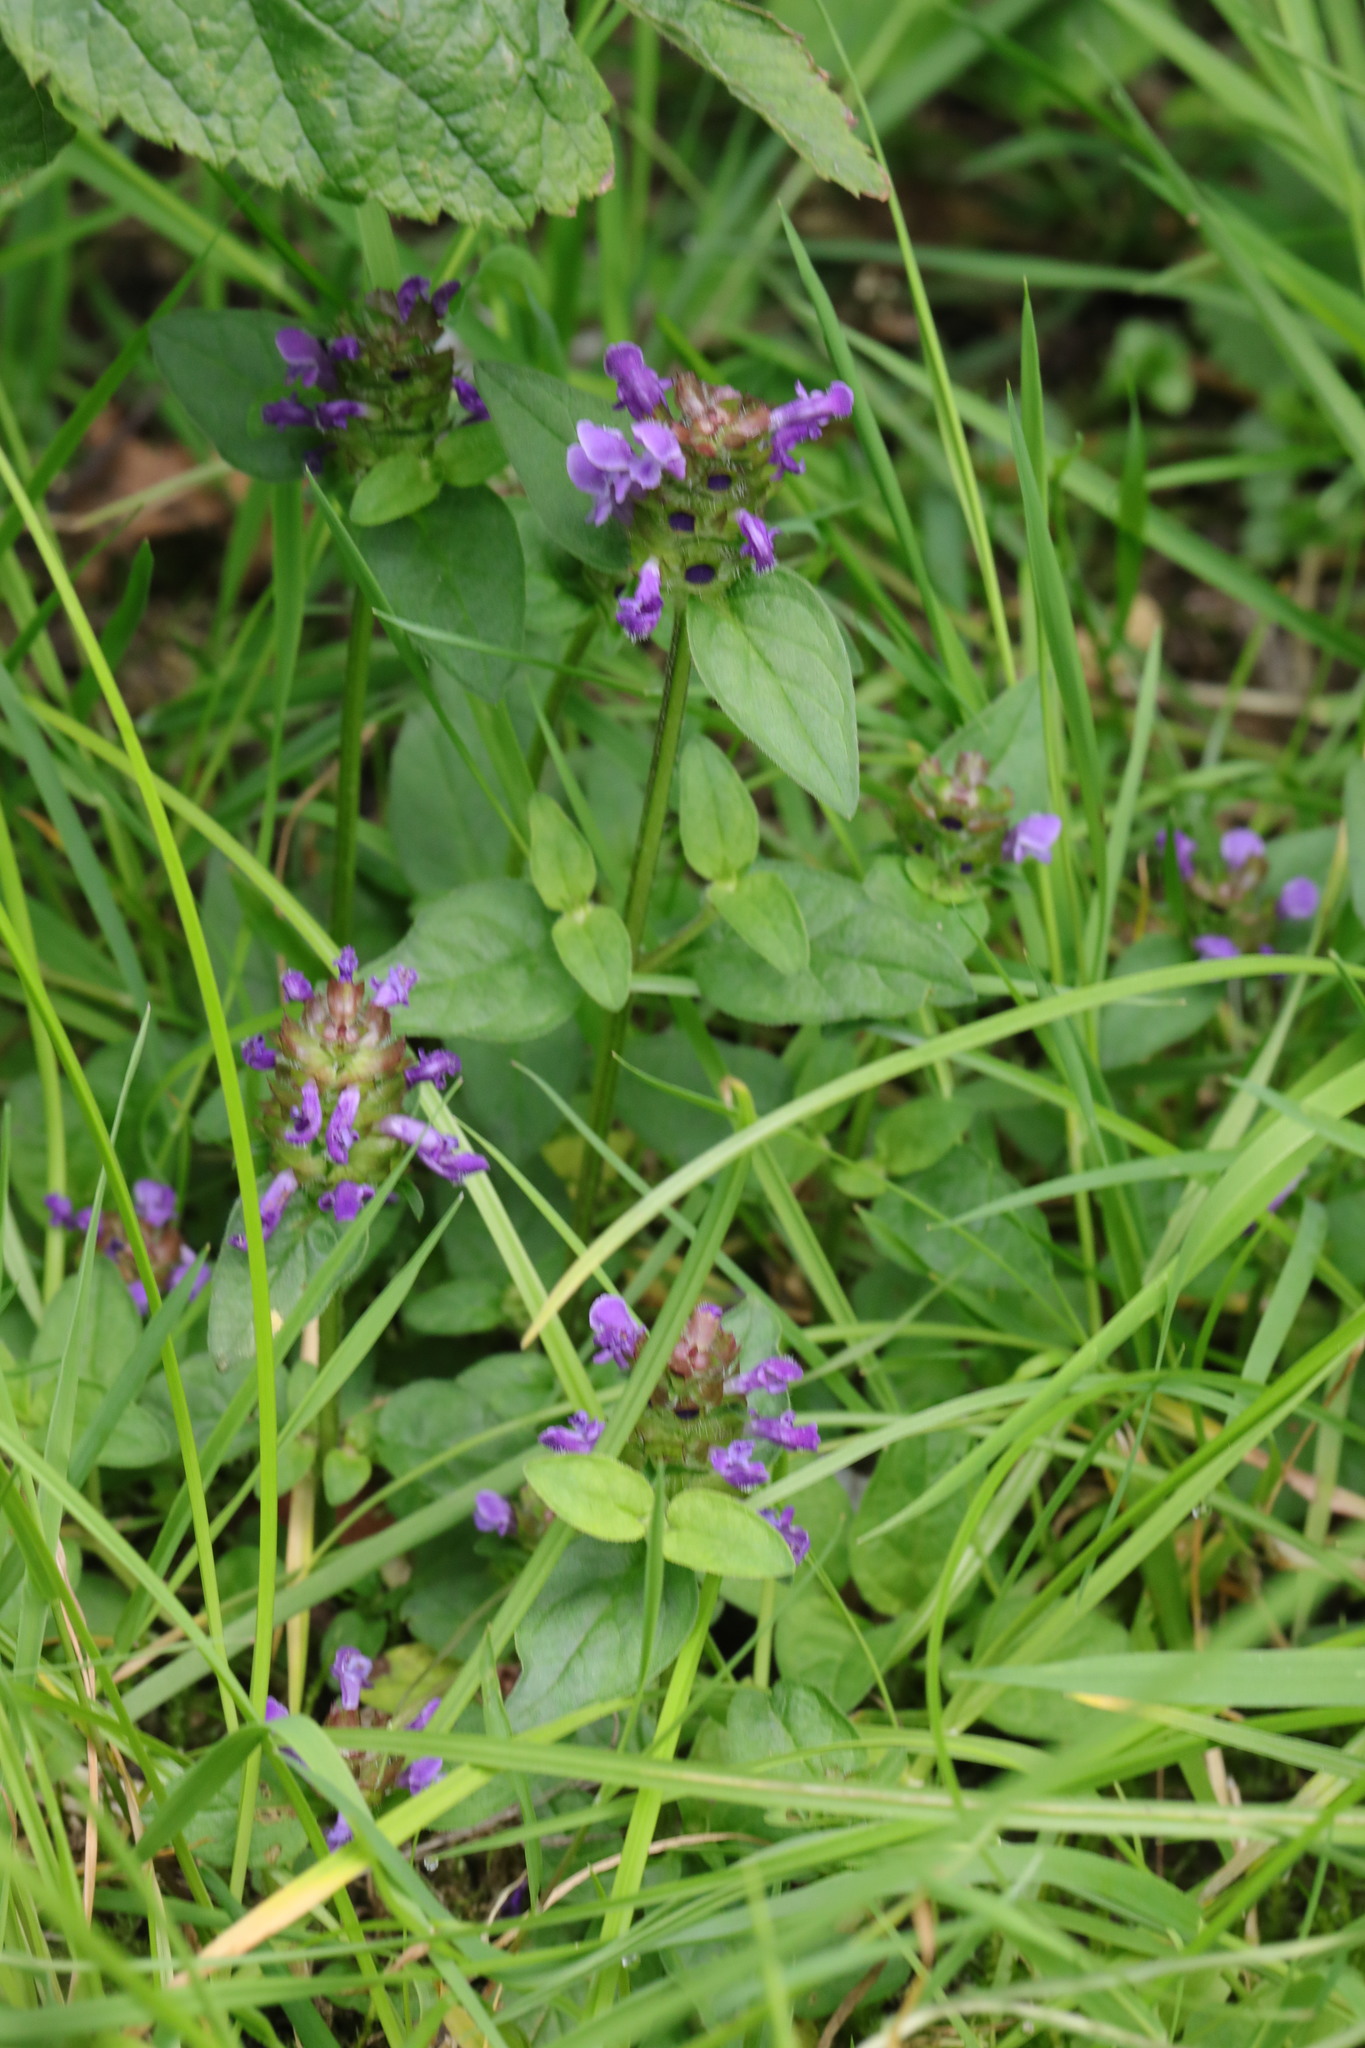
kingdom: Plantae
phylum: Tracheophyta
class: Magnoliopsida
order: Lamiales
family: Lamiaceae
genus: Prunella
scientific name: Prunella vulgaris
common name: Heal-all
